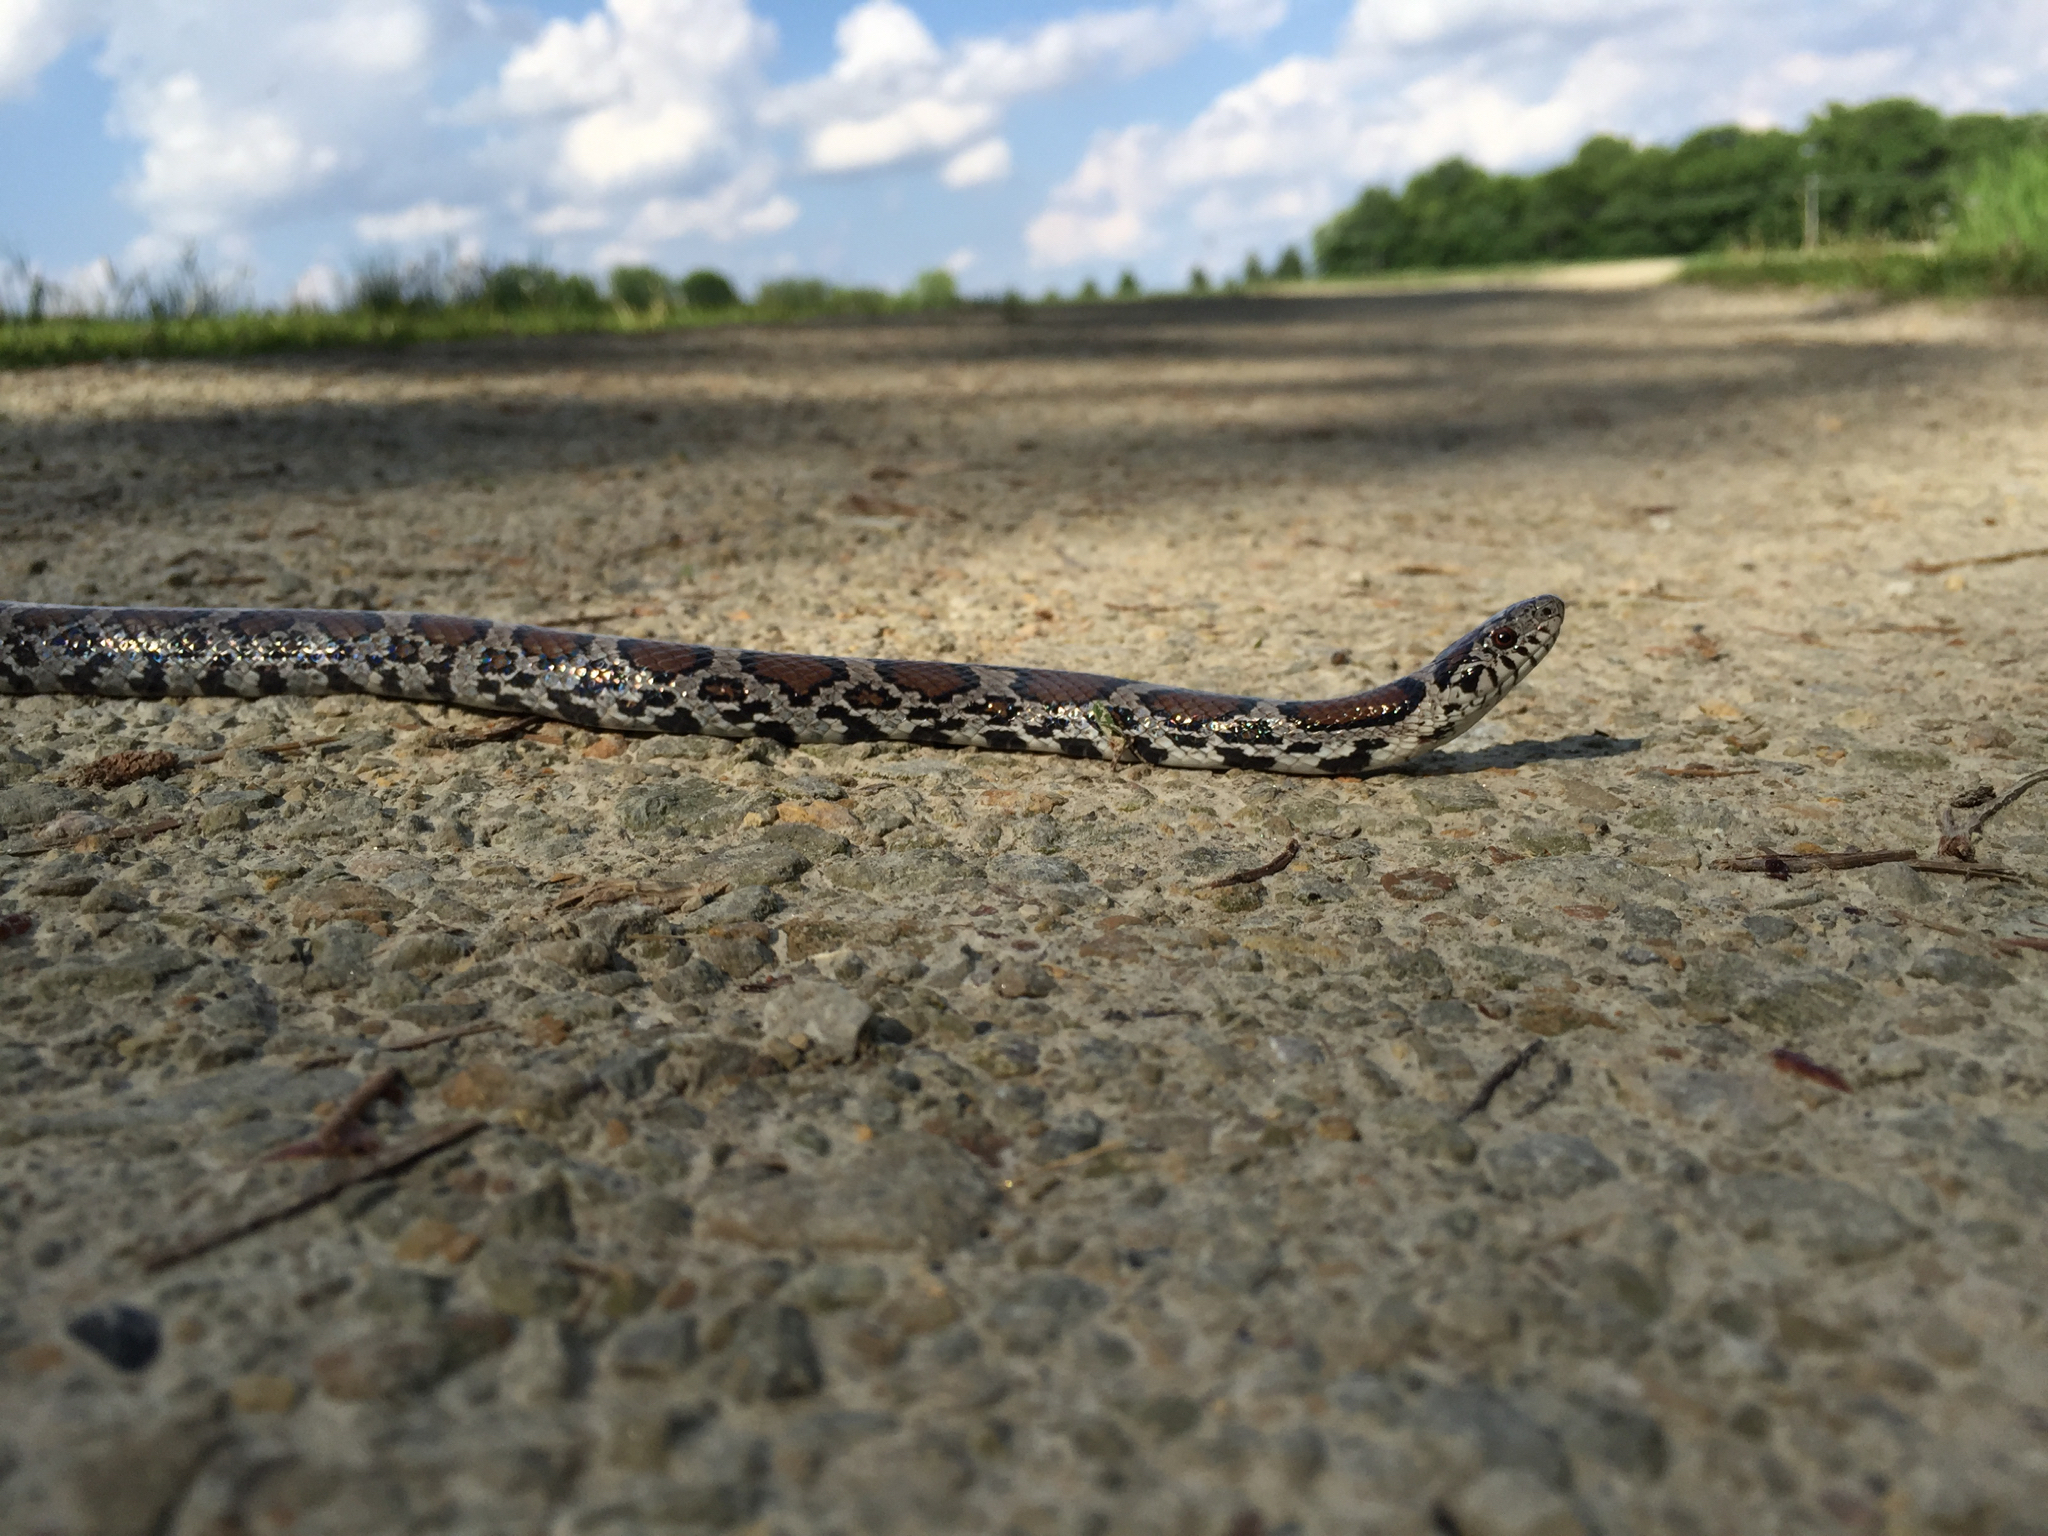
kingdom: Animalia
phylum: Chordata
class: Squamata
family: Colubridae
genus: Lampropeltis
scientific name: Lampropeltis triangulum
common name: Eastern milksnake
